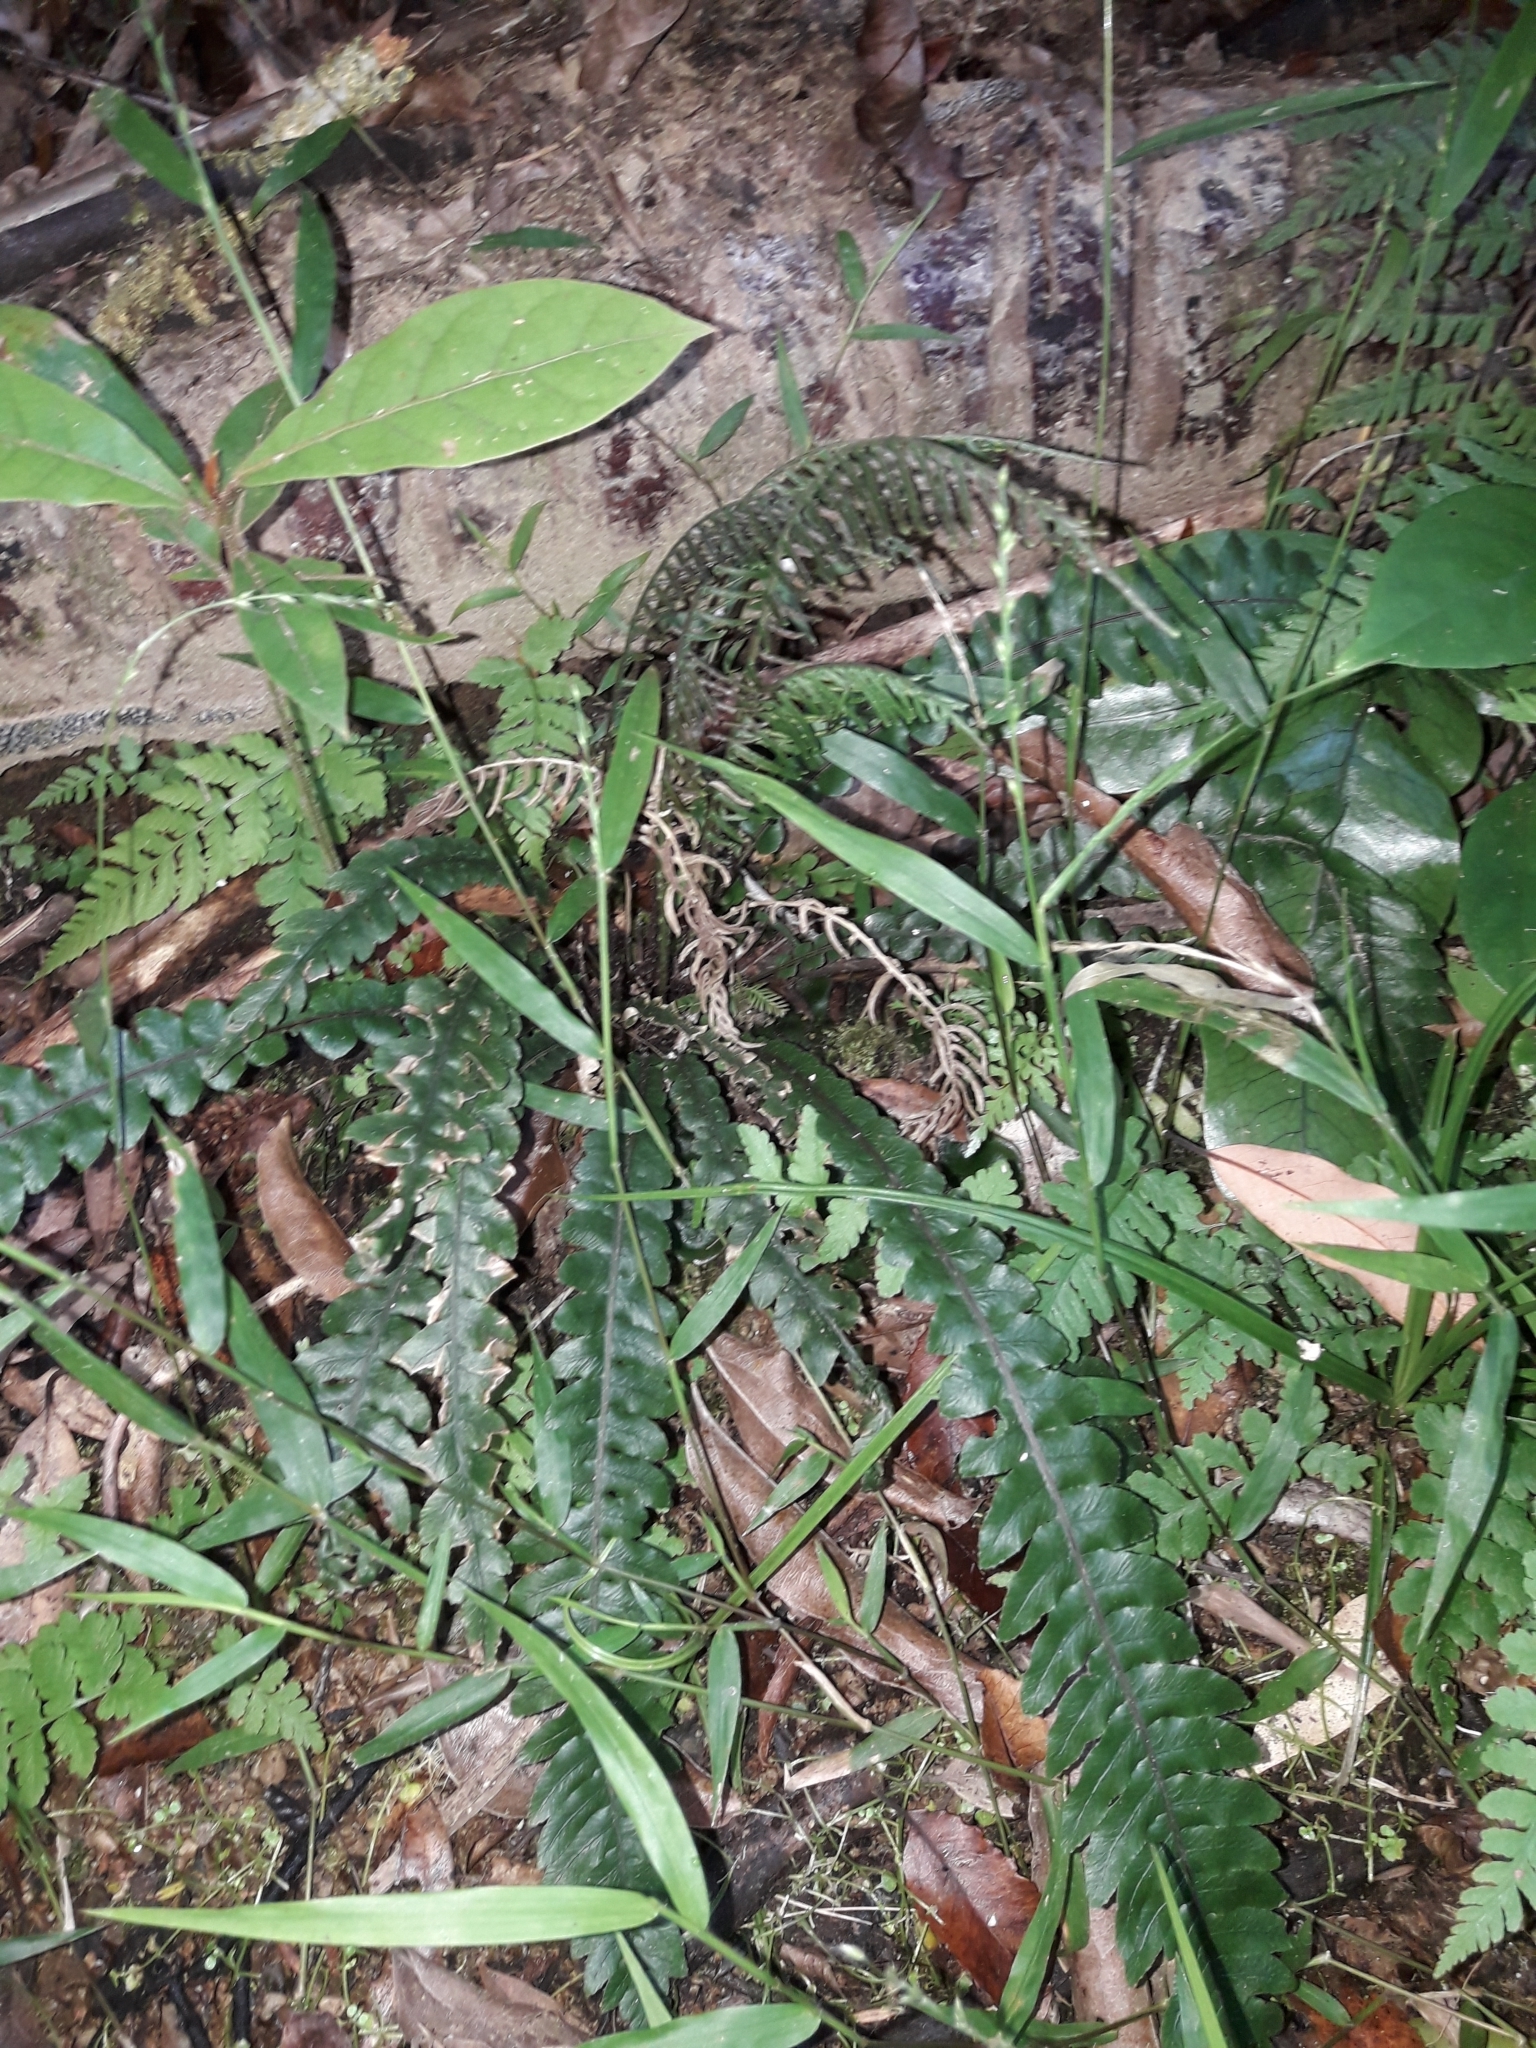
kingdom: Plantae
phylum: Tracheophyta
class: Polypodiopsida
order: Polypodiales
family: Blechnaceae
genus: Austroblechnum
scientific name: Austroblechnum lanceolatum
